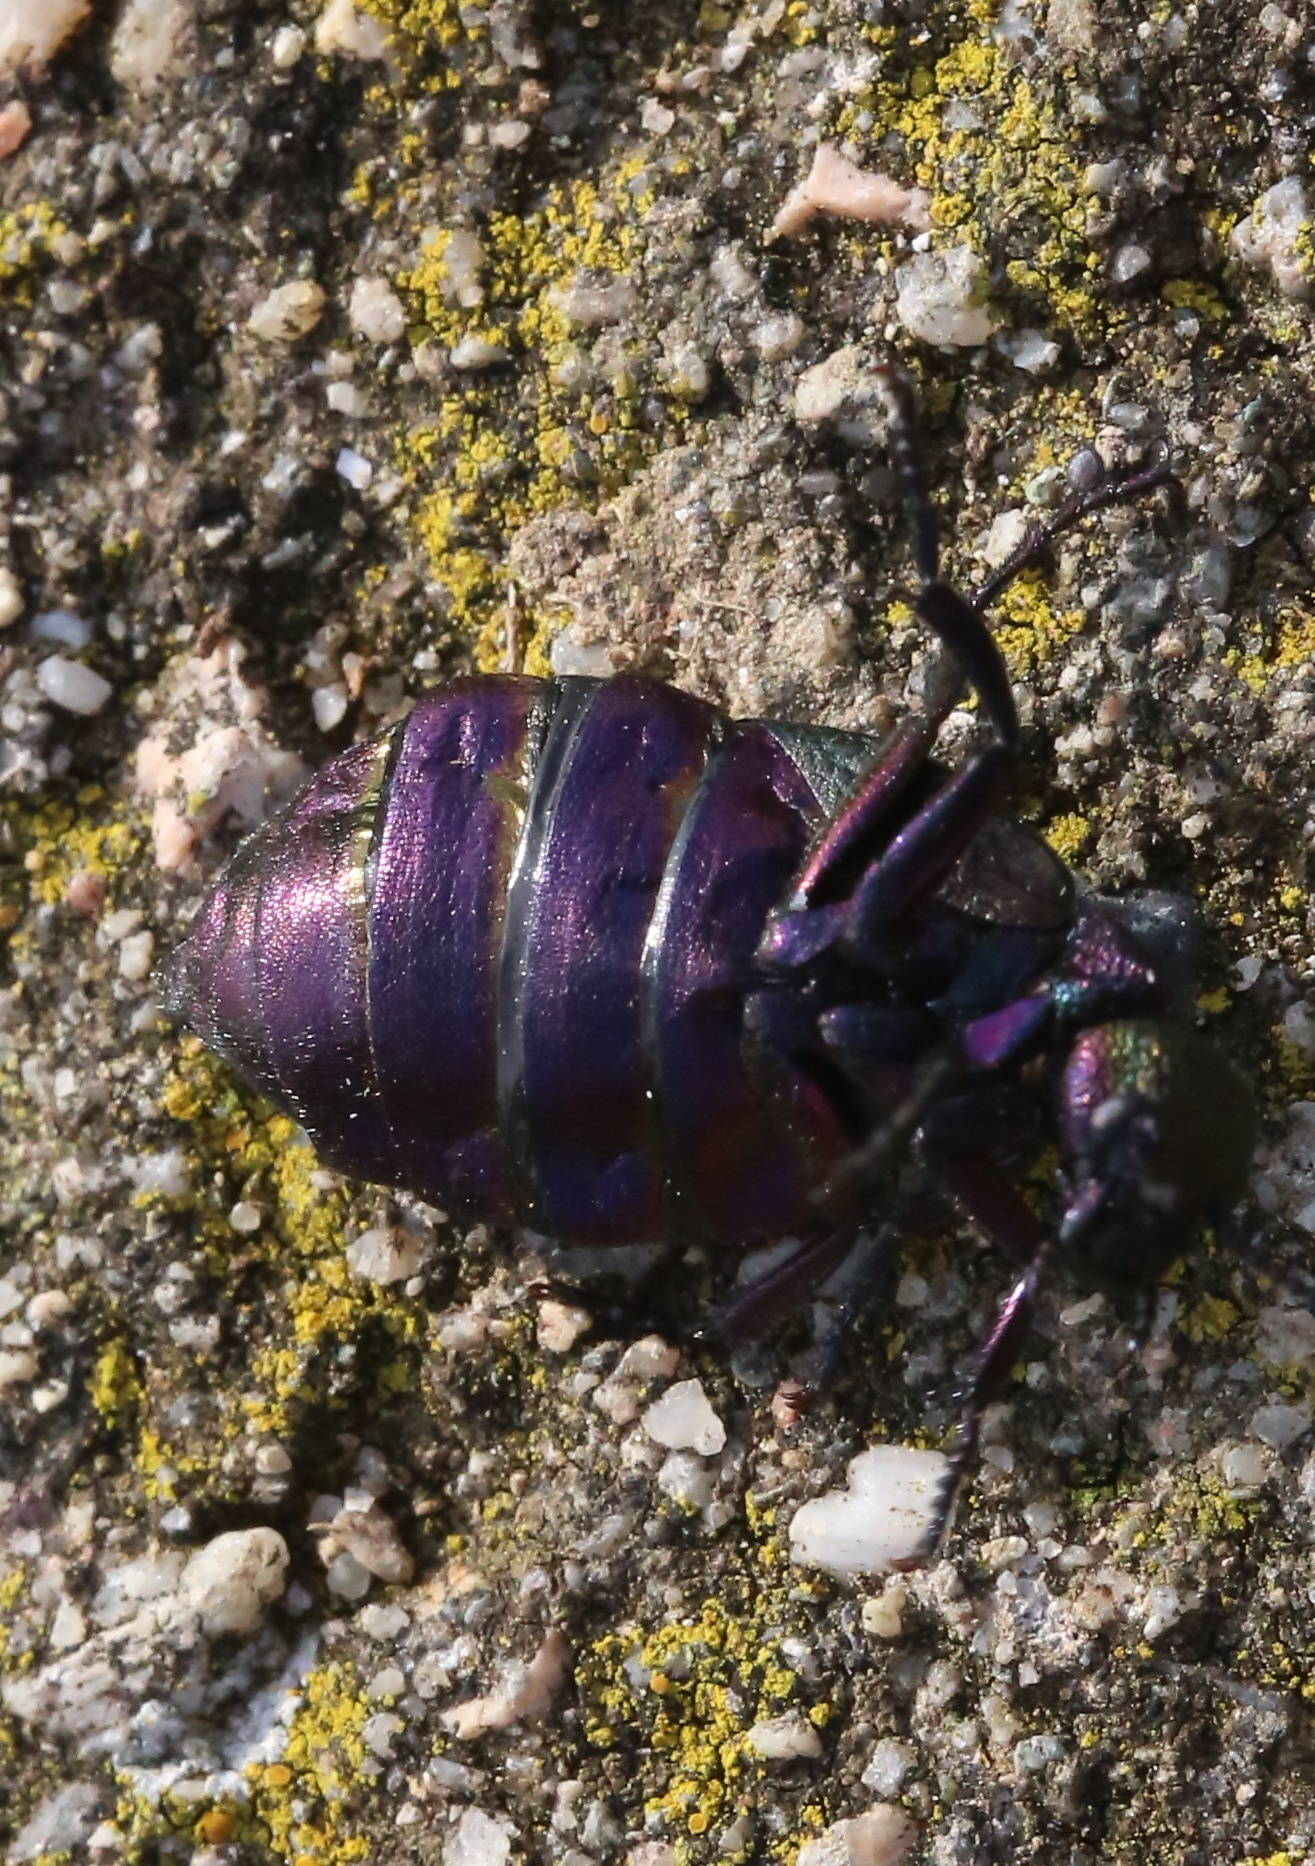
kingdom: Animalia
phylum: Arthropoda
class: Insecta
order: Coleoptera
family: Meloidae
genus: Meloe
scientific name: Meloe cavensis
